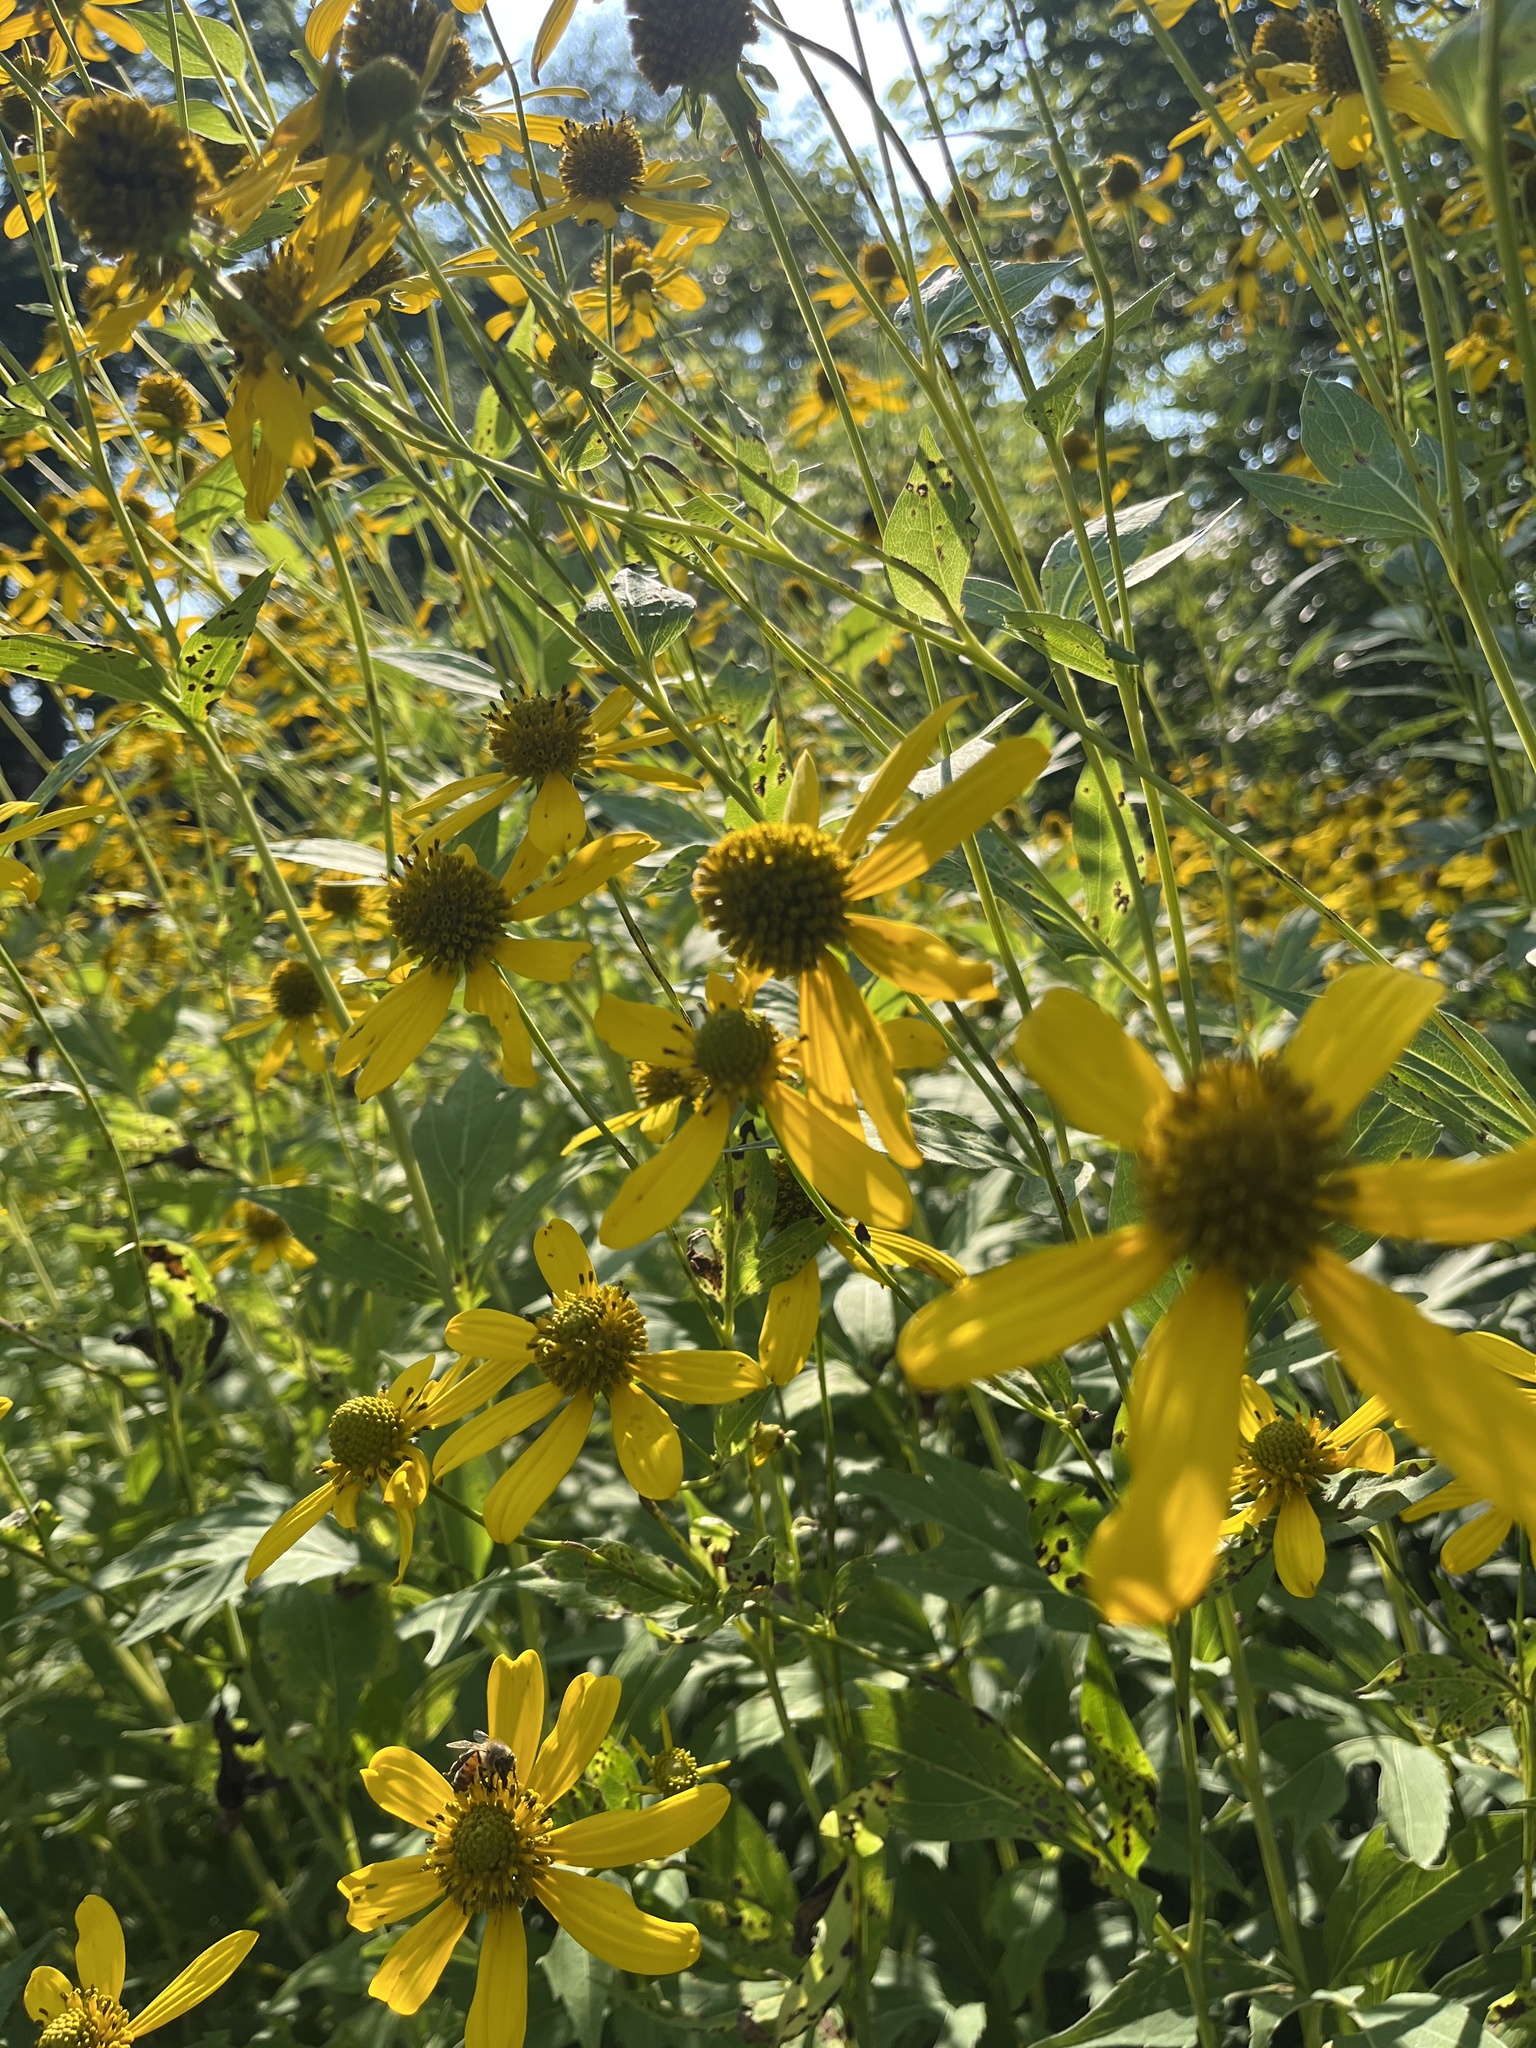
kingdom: Plantae
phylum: Tracheophyta
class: Magnoliopsida
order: Asterales
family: Asteraceae
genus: Rudbeckia
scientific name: Rudbeckia laciniata
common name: Coneflower
